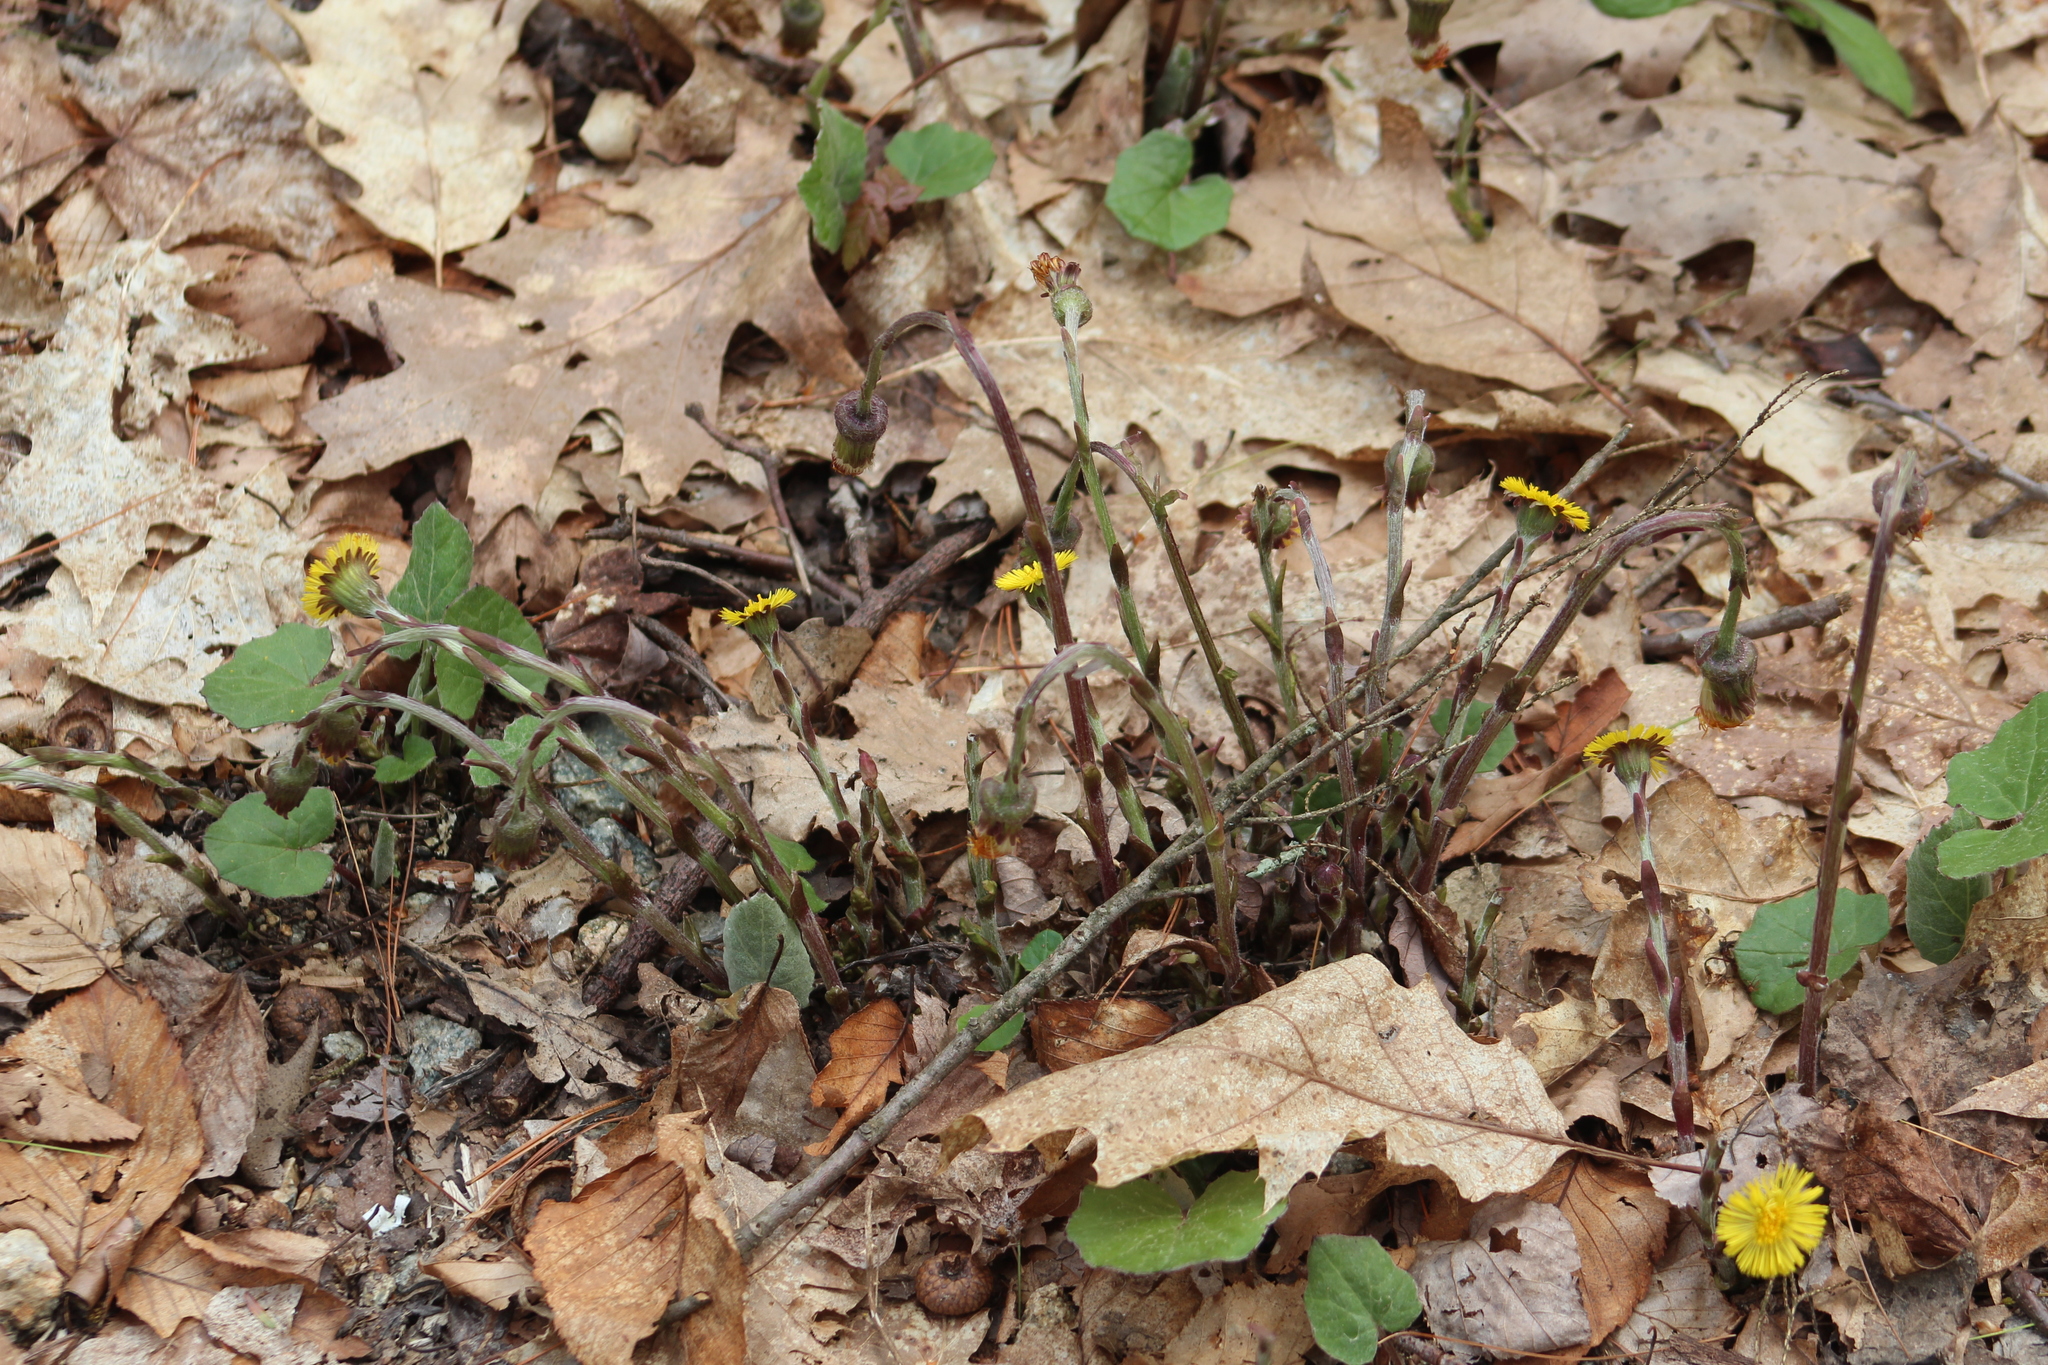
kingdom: Plantae
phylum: Tracheophyta
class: Magnoliopsida
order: Asterales
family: Asteraceae
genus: Tussilago
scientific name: Tussilago farfara
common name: Coltsfoot
